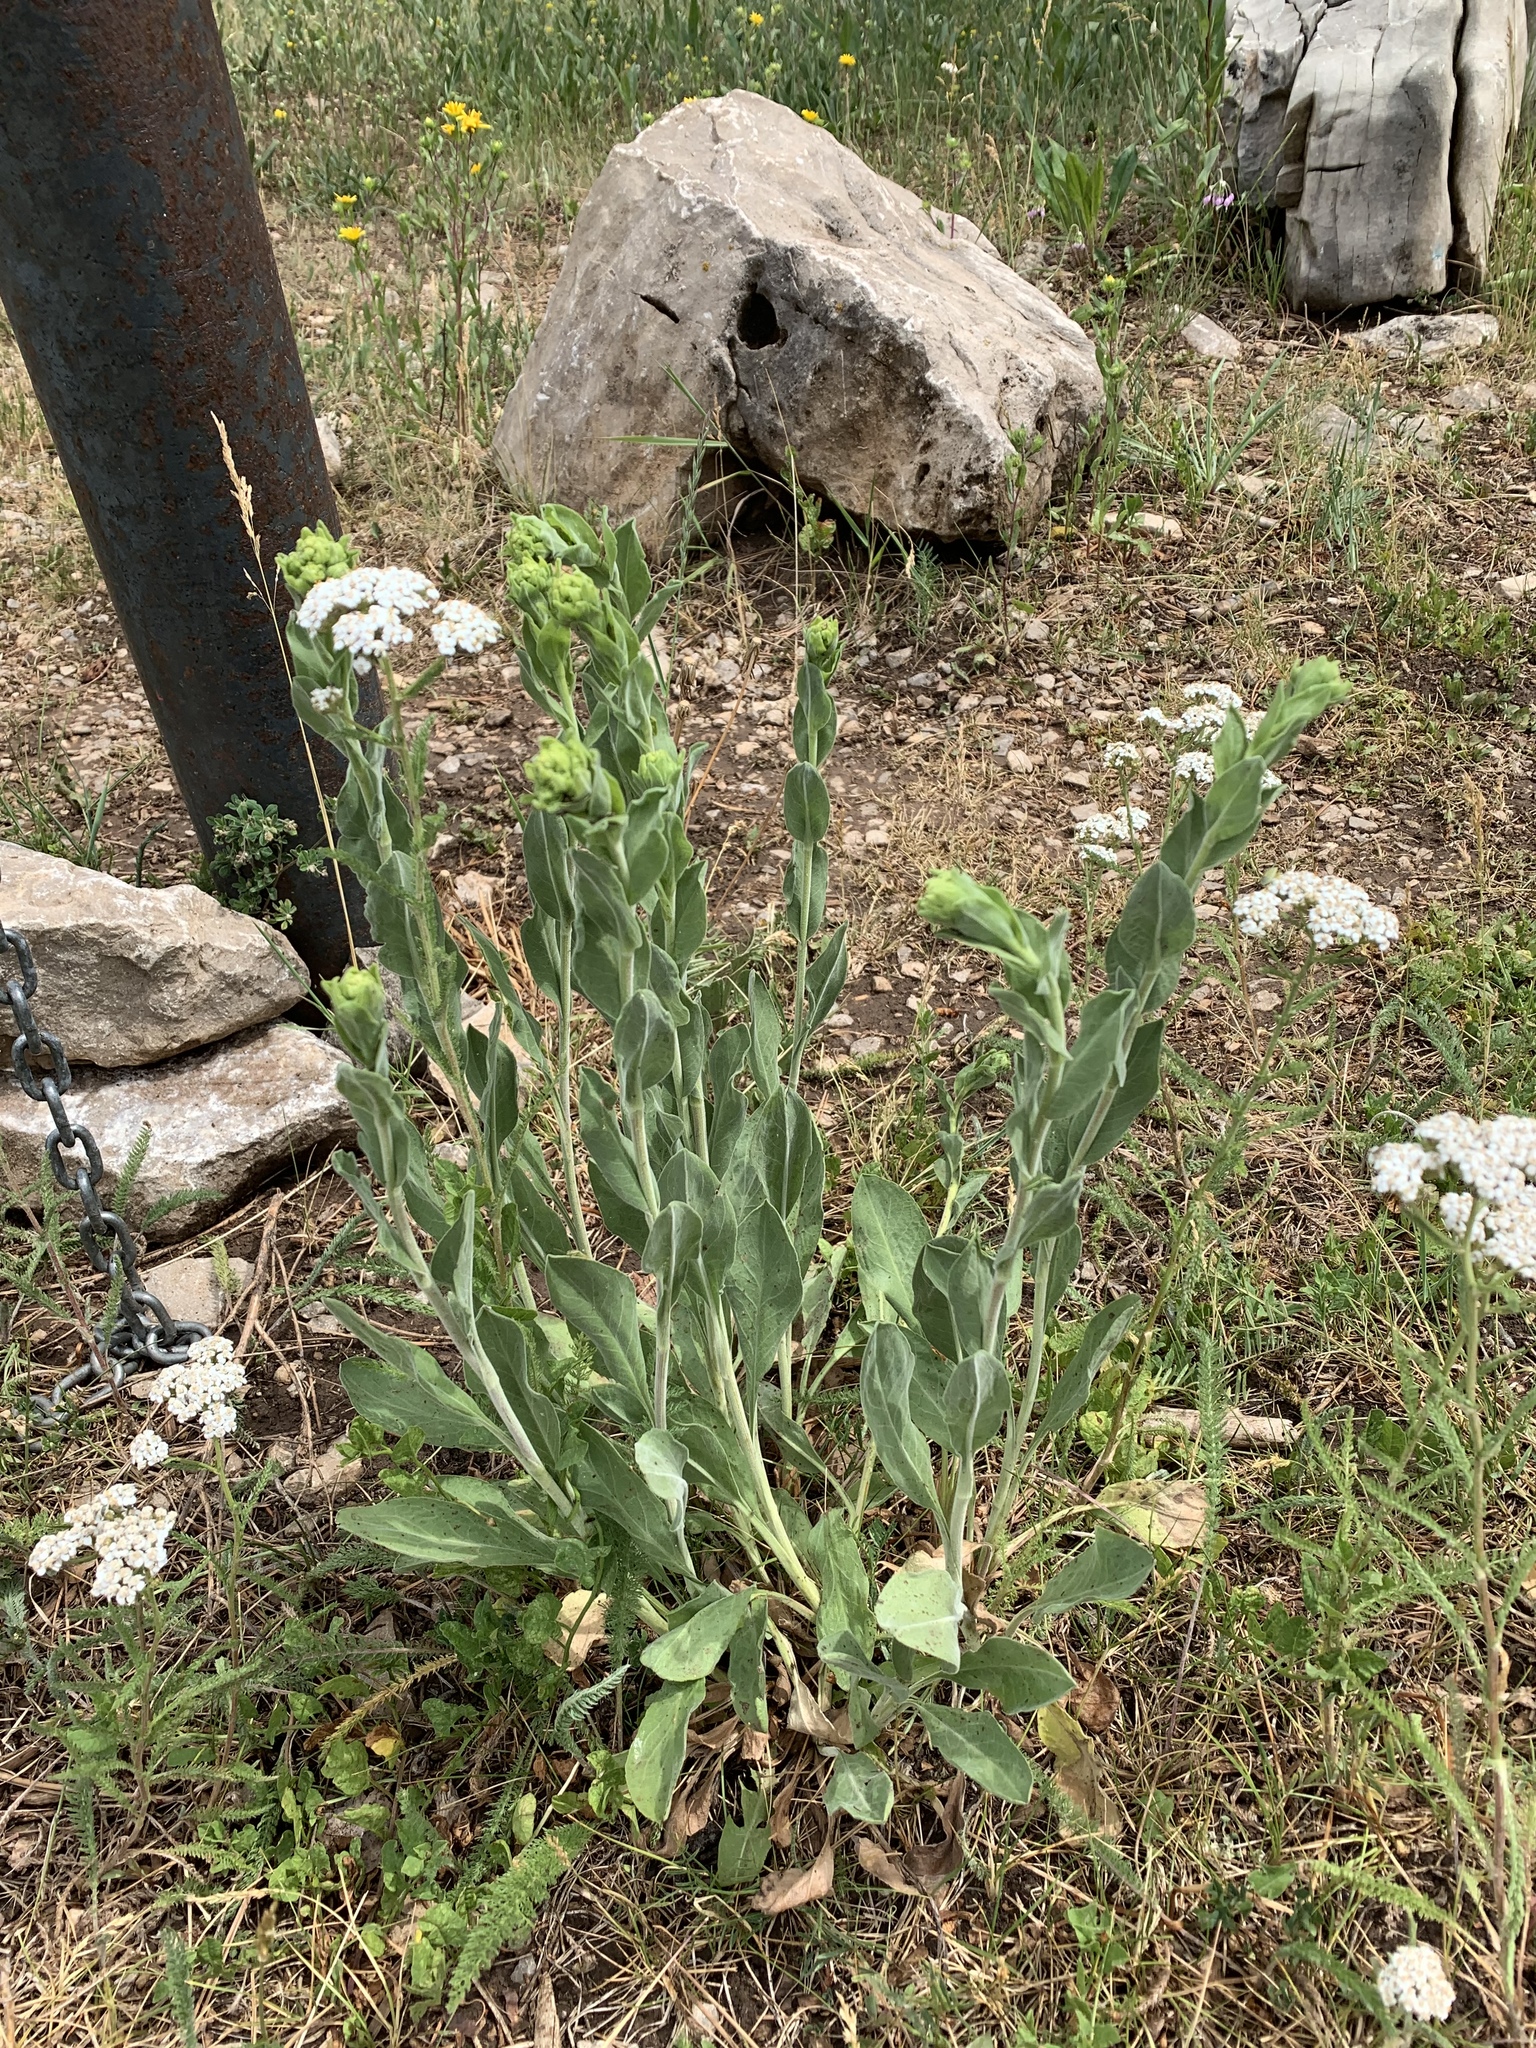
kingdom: Plantae
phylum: Tracheophyta
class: Magnoliopsida
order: Asterales
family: Asteraceae
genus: Achillea
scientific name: Achillea millefolium
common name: Yarrow
